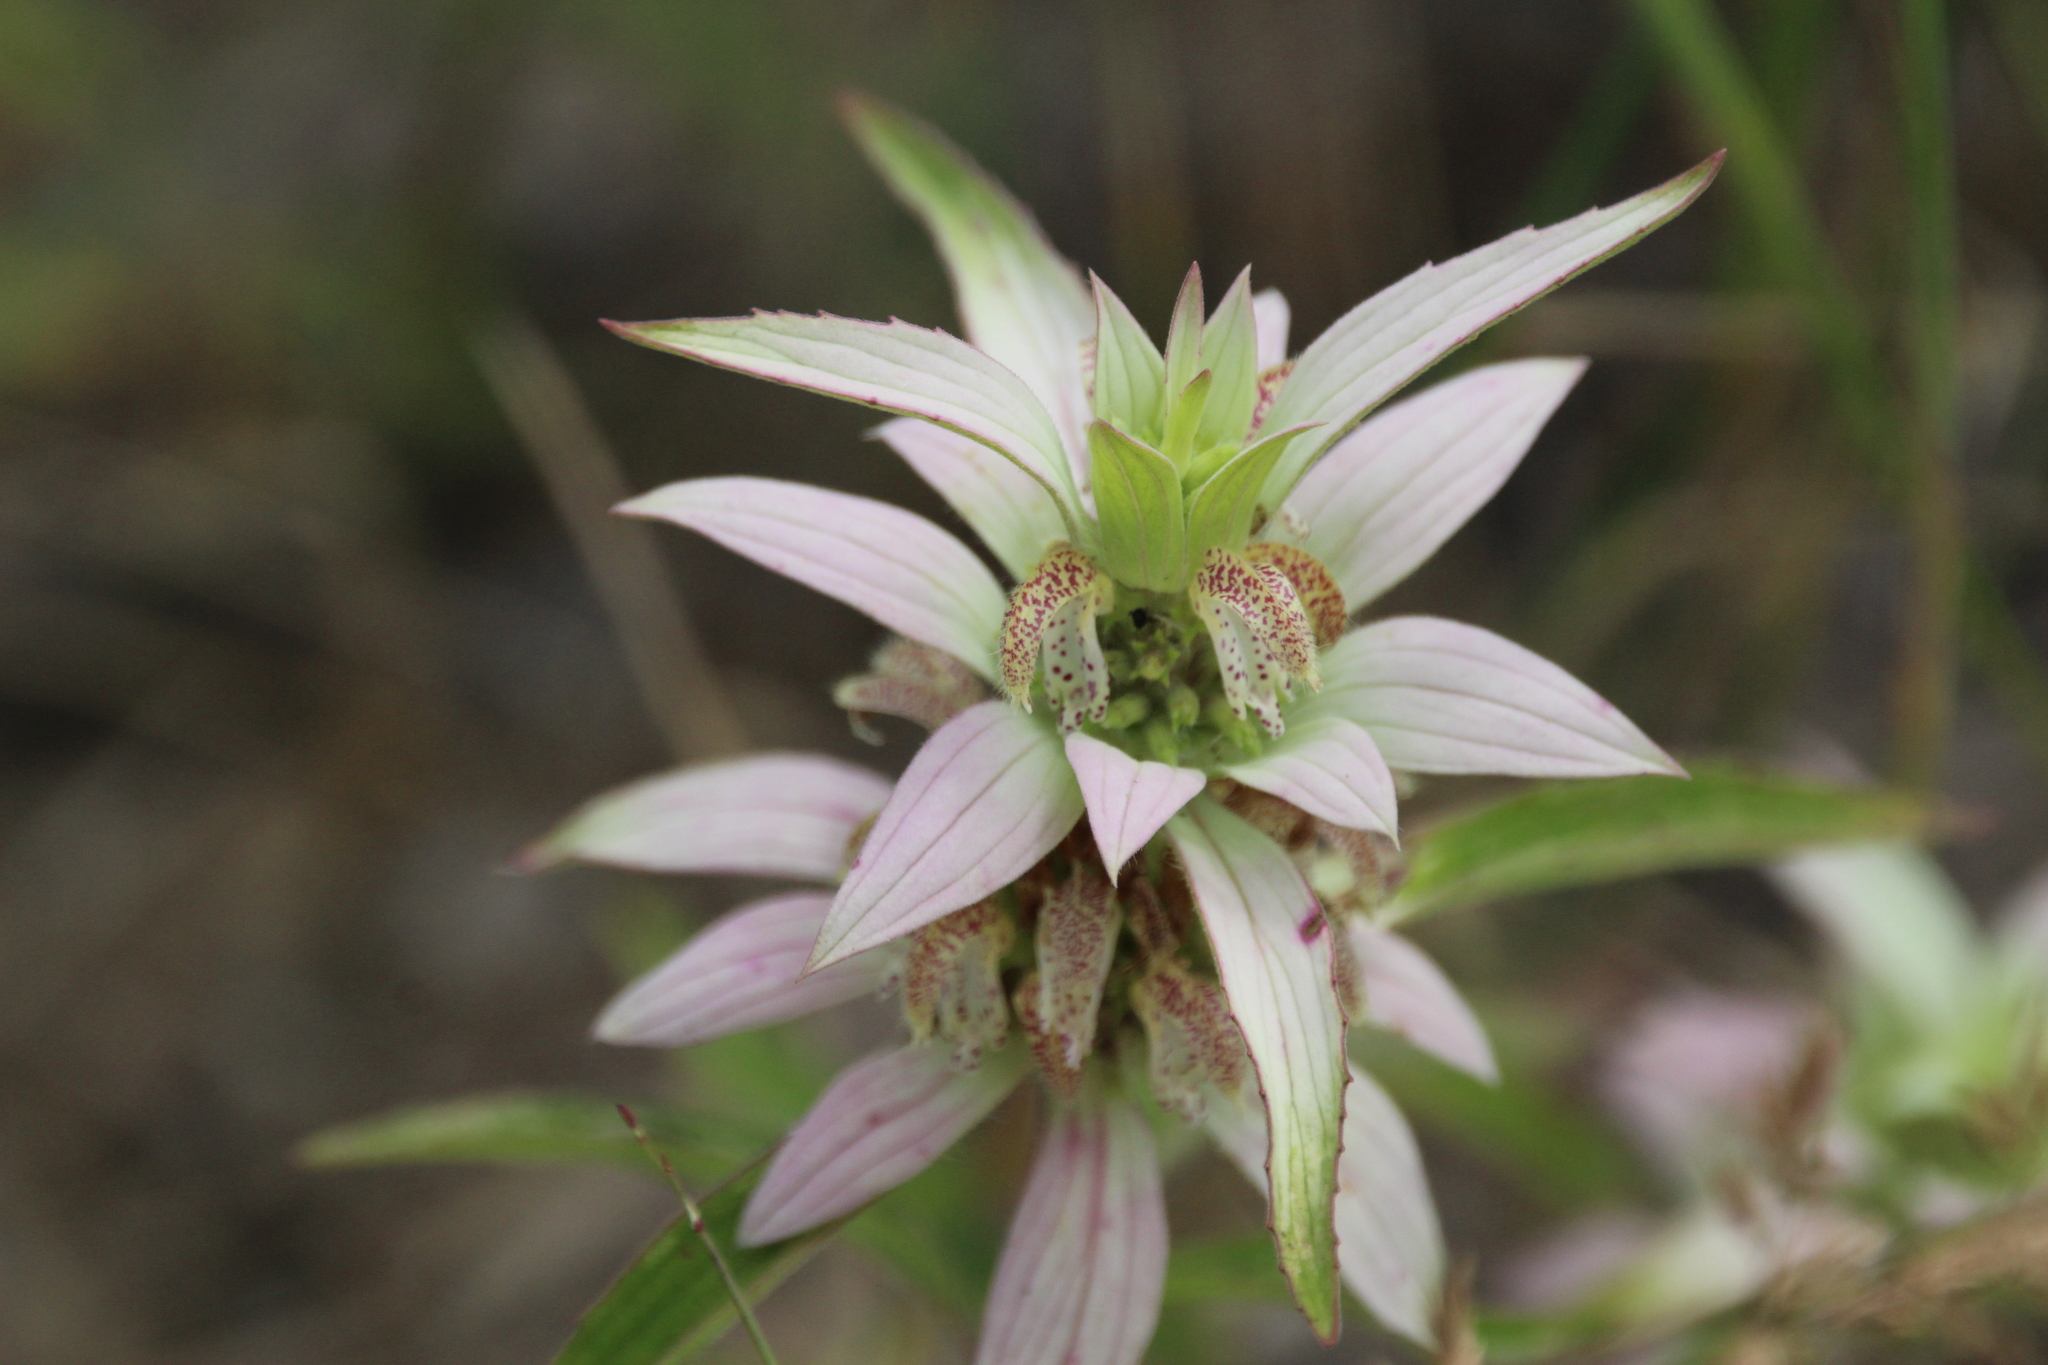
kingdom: Plantae
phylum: Tracheophyta
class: Magnoliopsida
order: Lamiales
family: Lamiaceae
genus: Monarda
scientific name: Monarda punctata
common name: Dotted monarda
